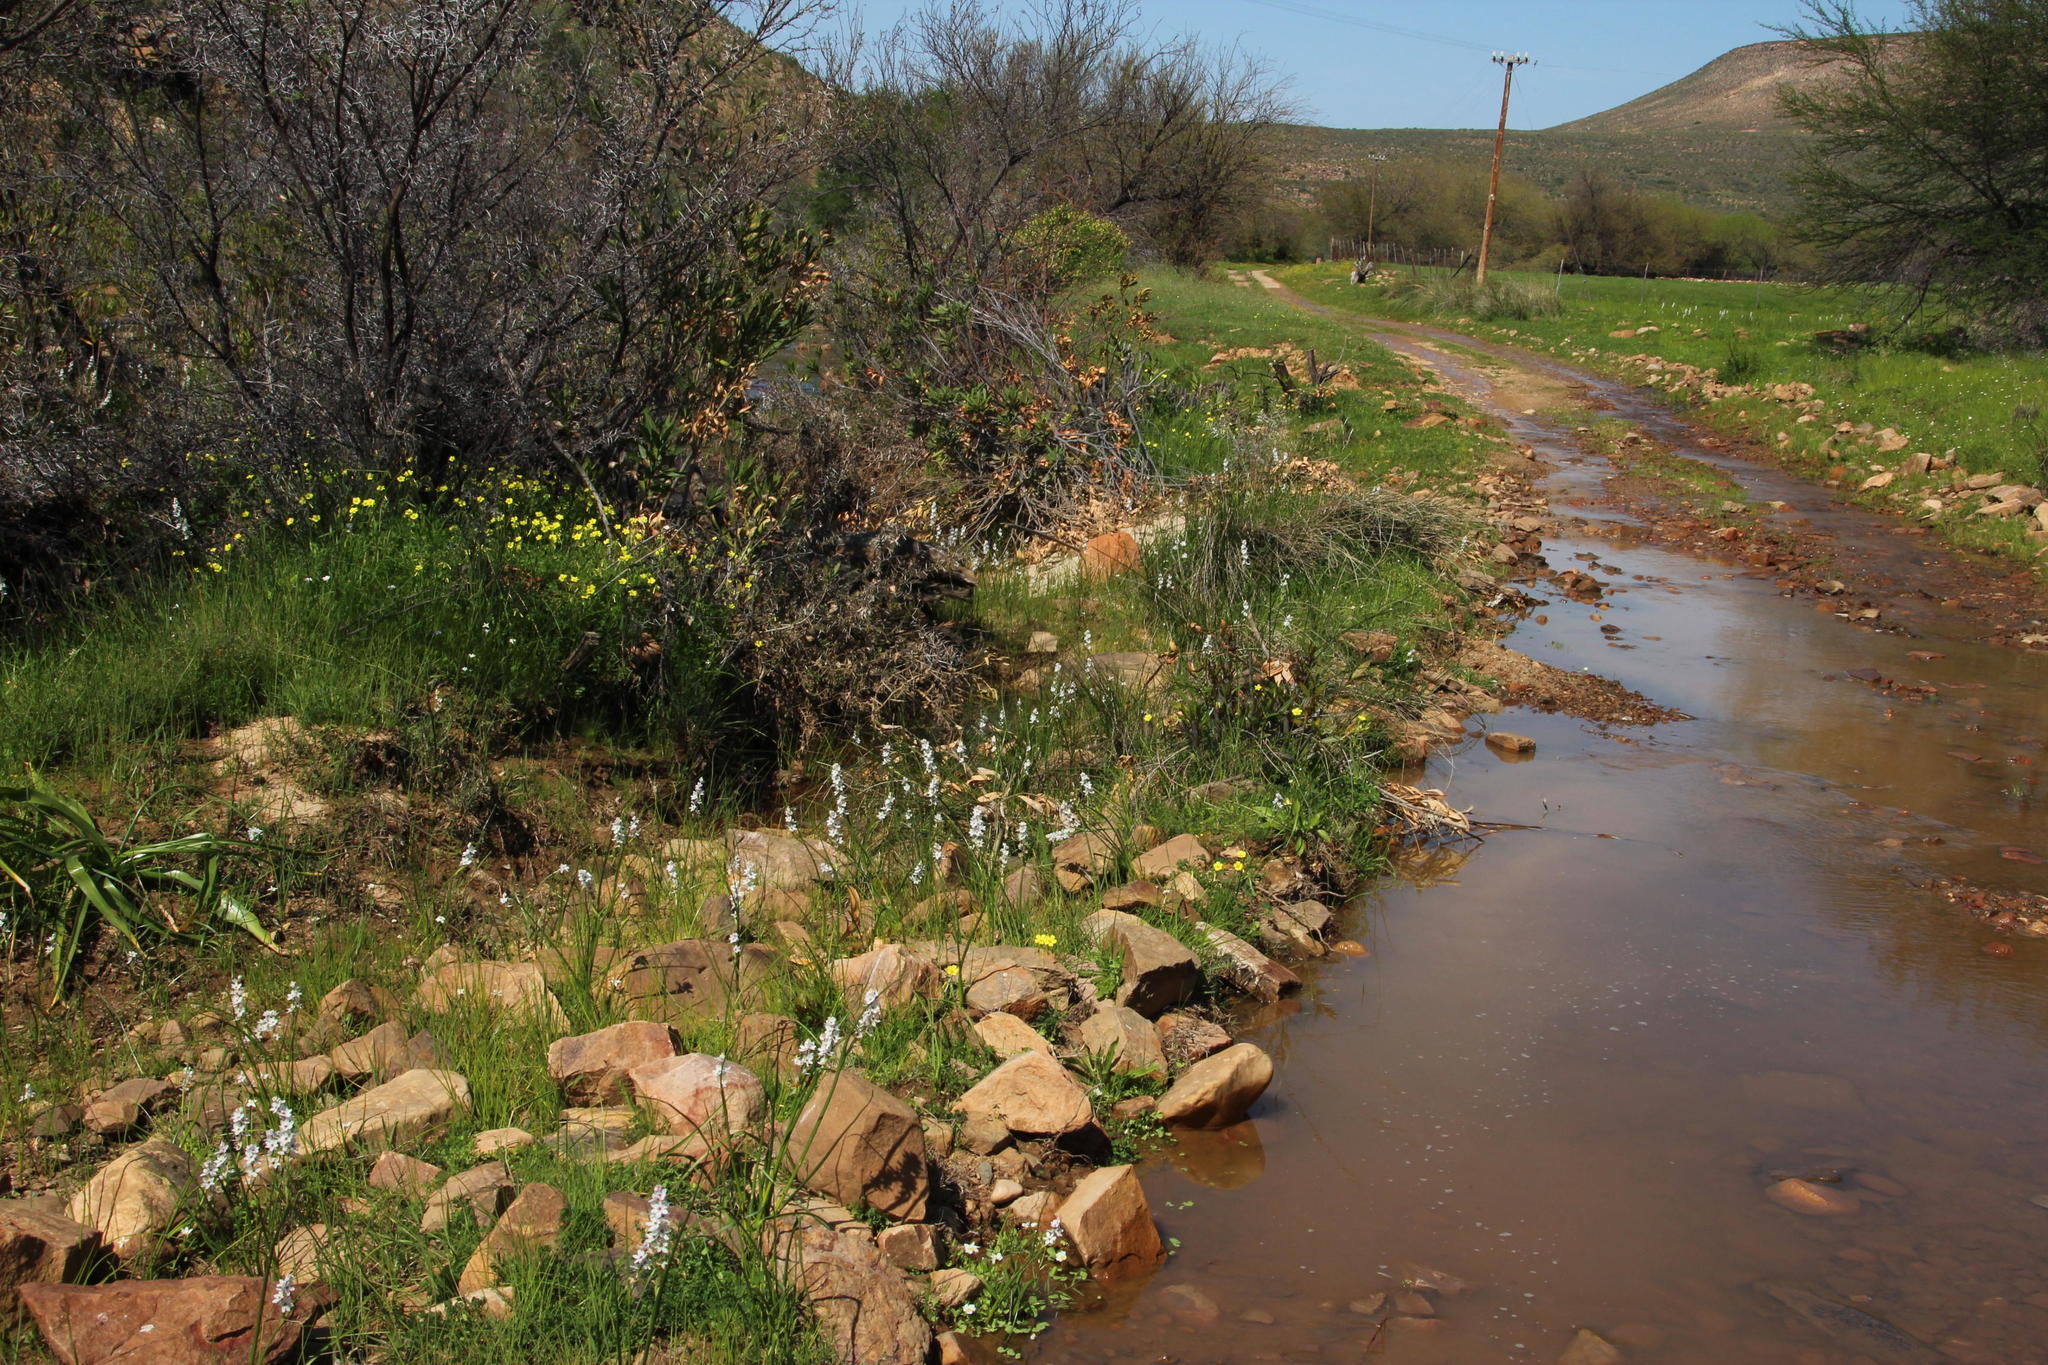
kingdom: Plantae
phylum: Tracheophyta
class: Liliopsida
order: Liliales
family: Colchicaceae
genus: Wurmbea
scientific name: Wurmbea stricta
